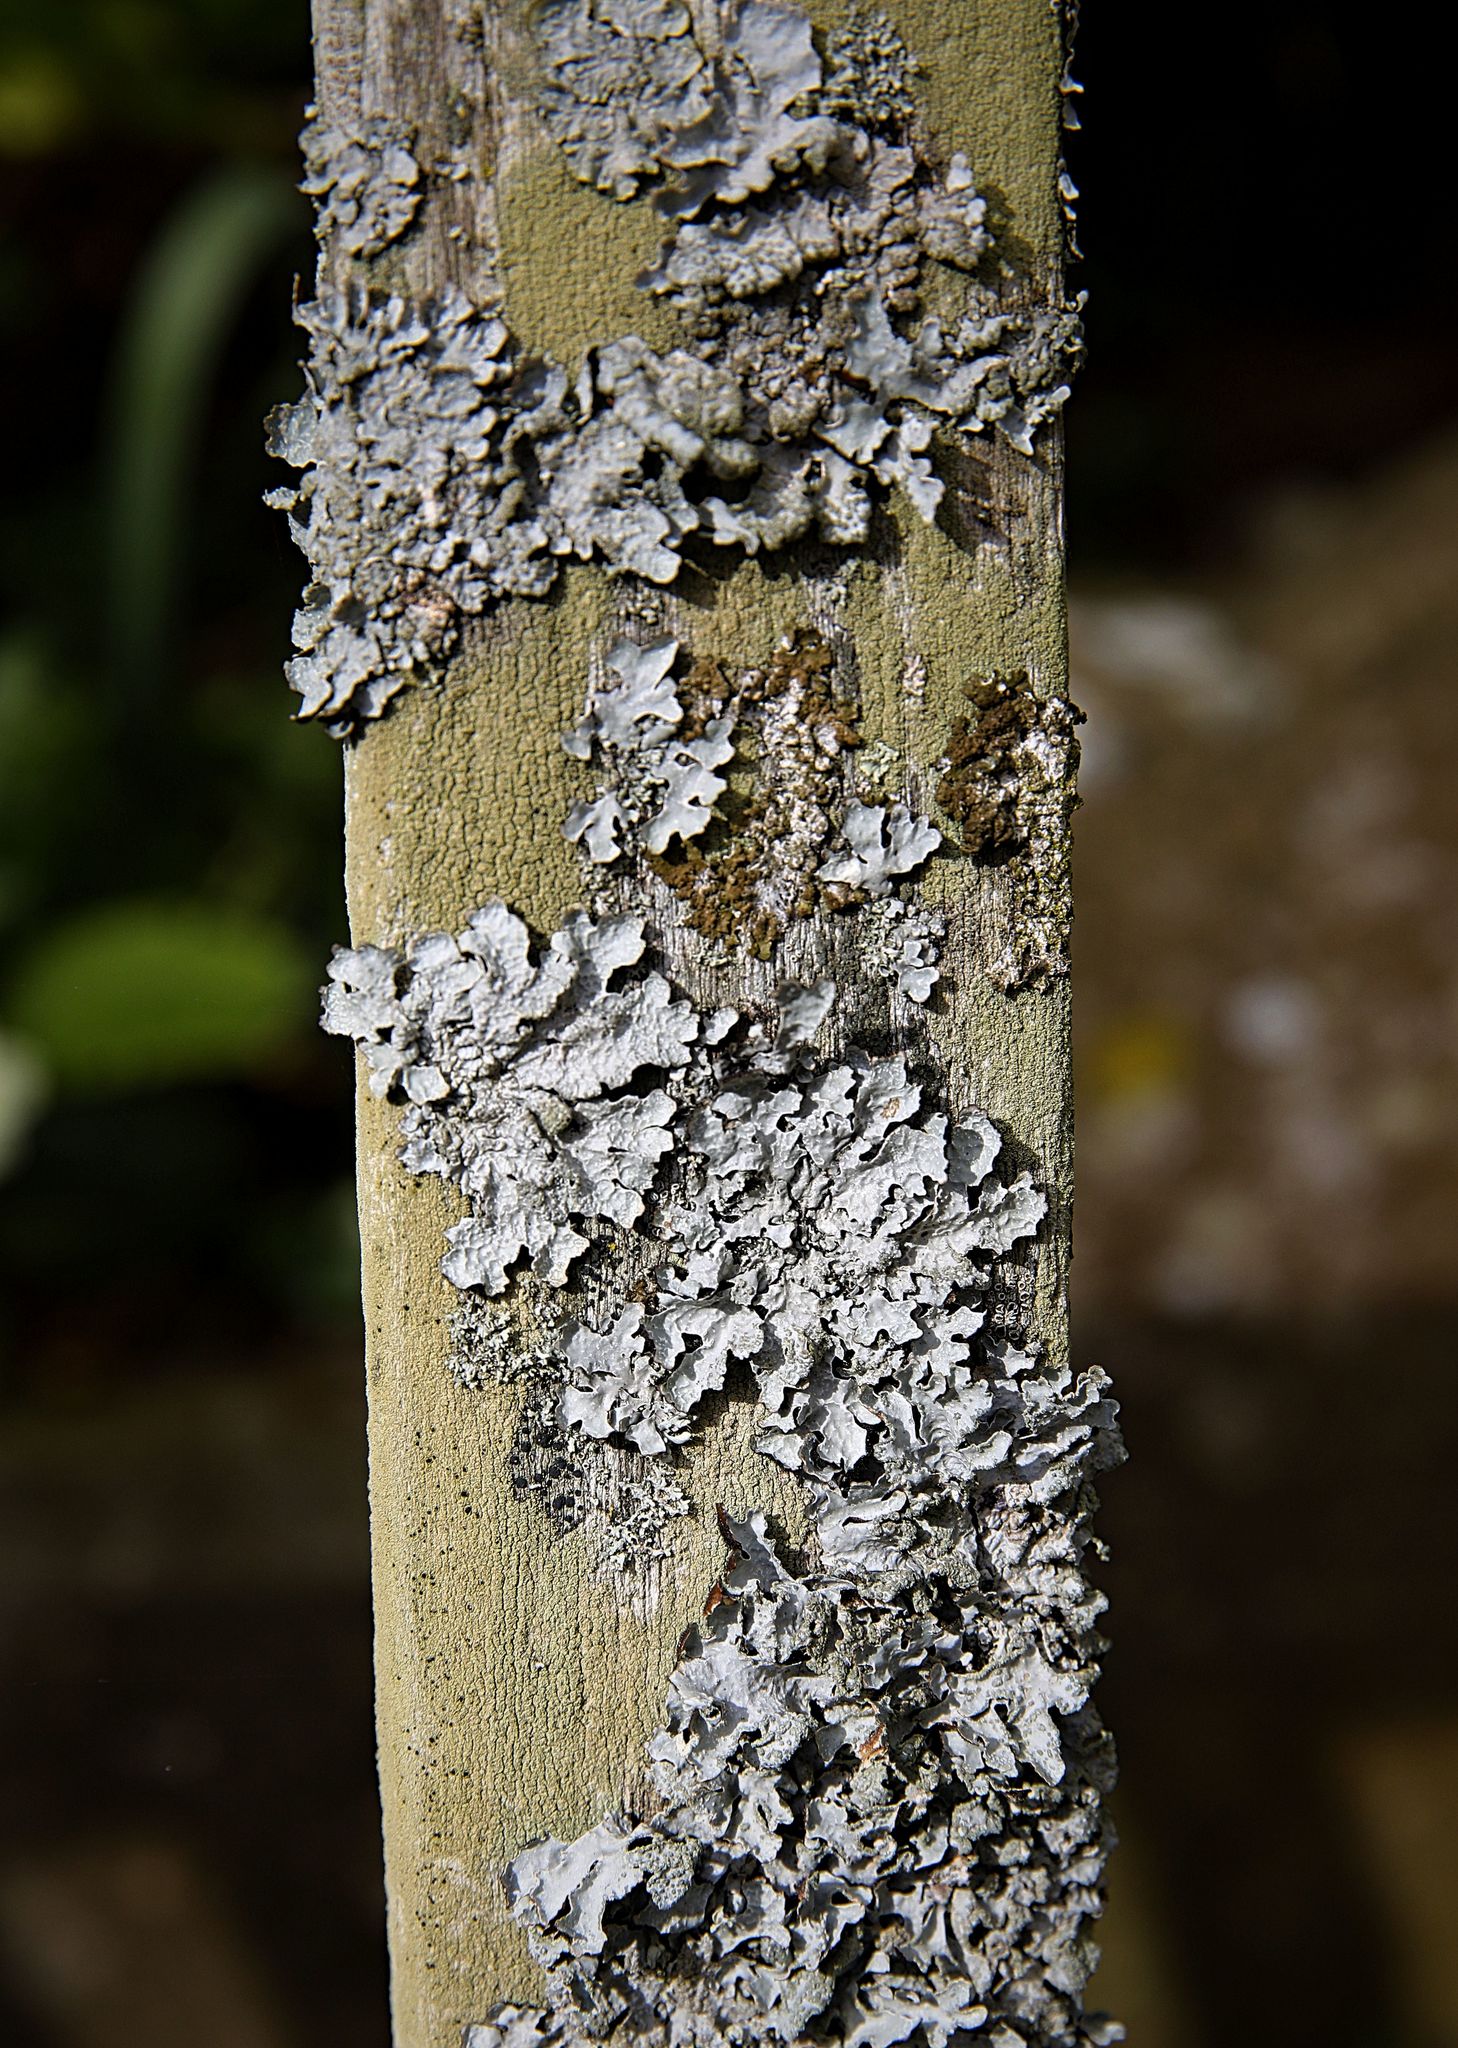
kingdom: Fungi
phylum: Ascomycota
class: Lecanoromycetes
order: Lecanorales
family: Parmeliaceae
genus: Parmelia
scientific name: Parmelia sulcata
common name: Netted shield lichen
